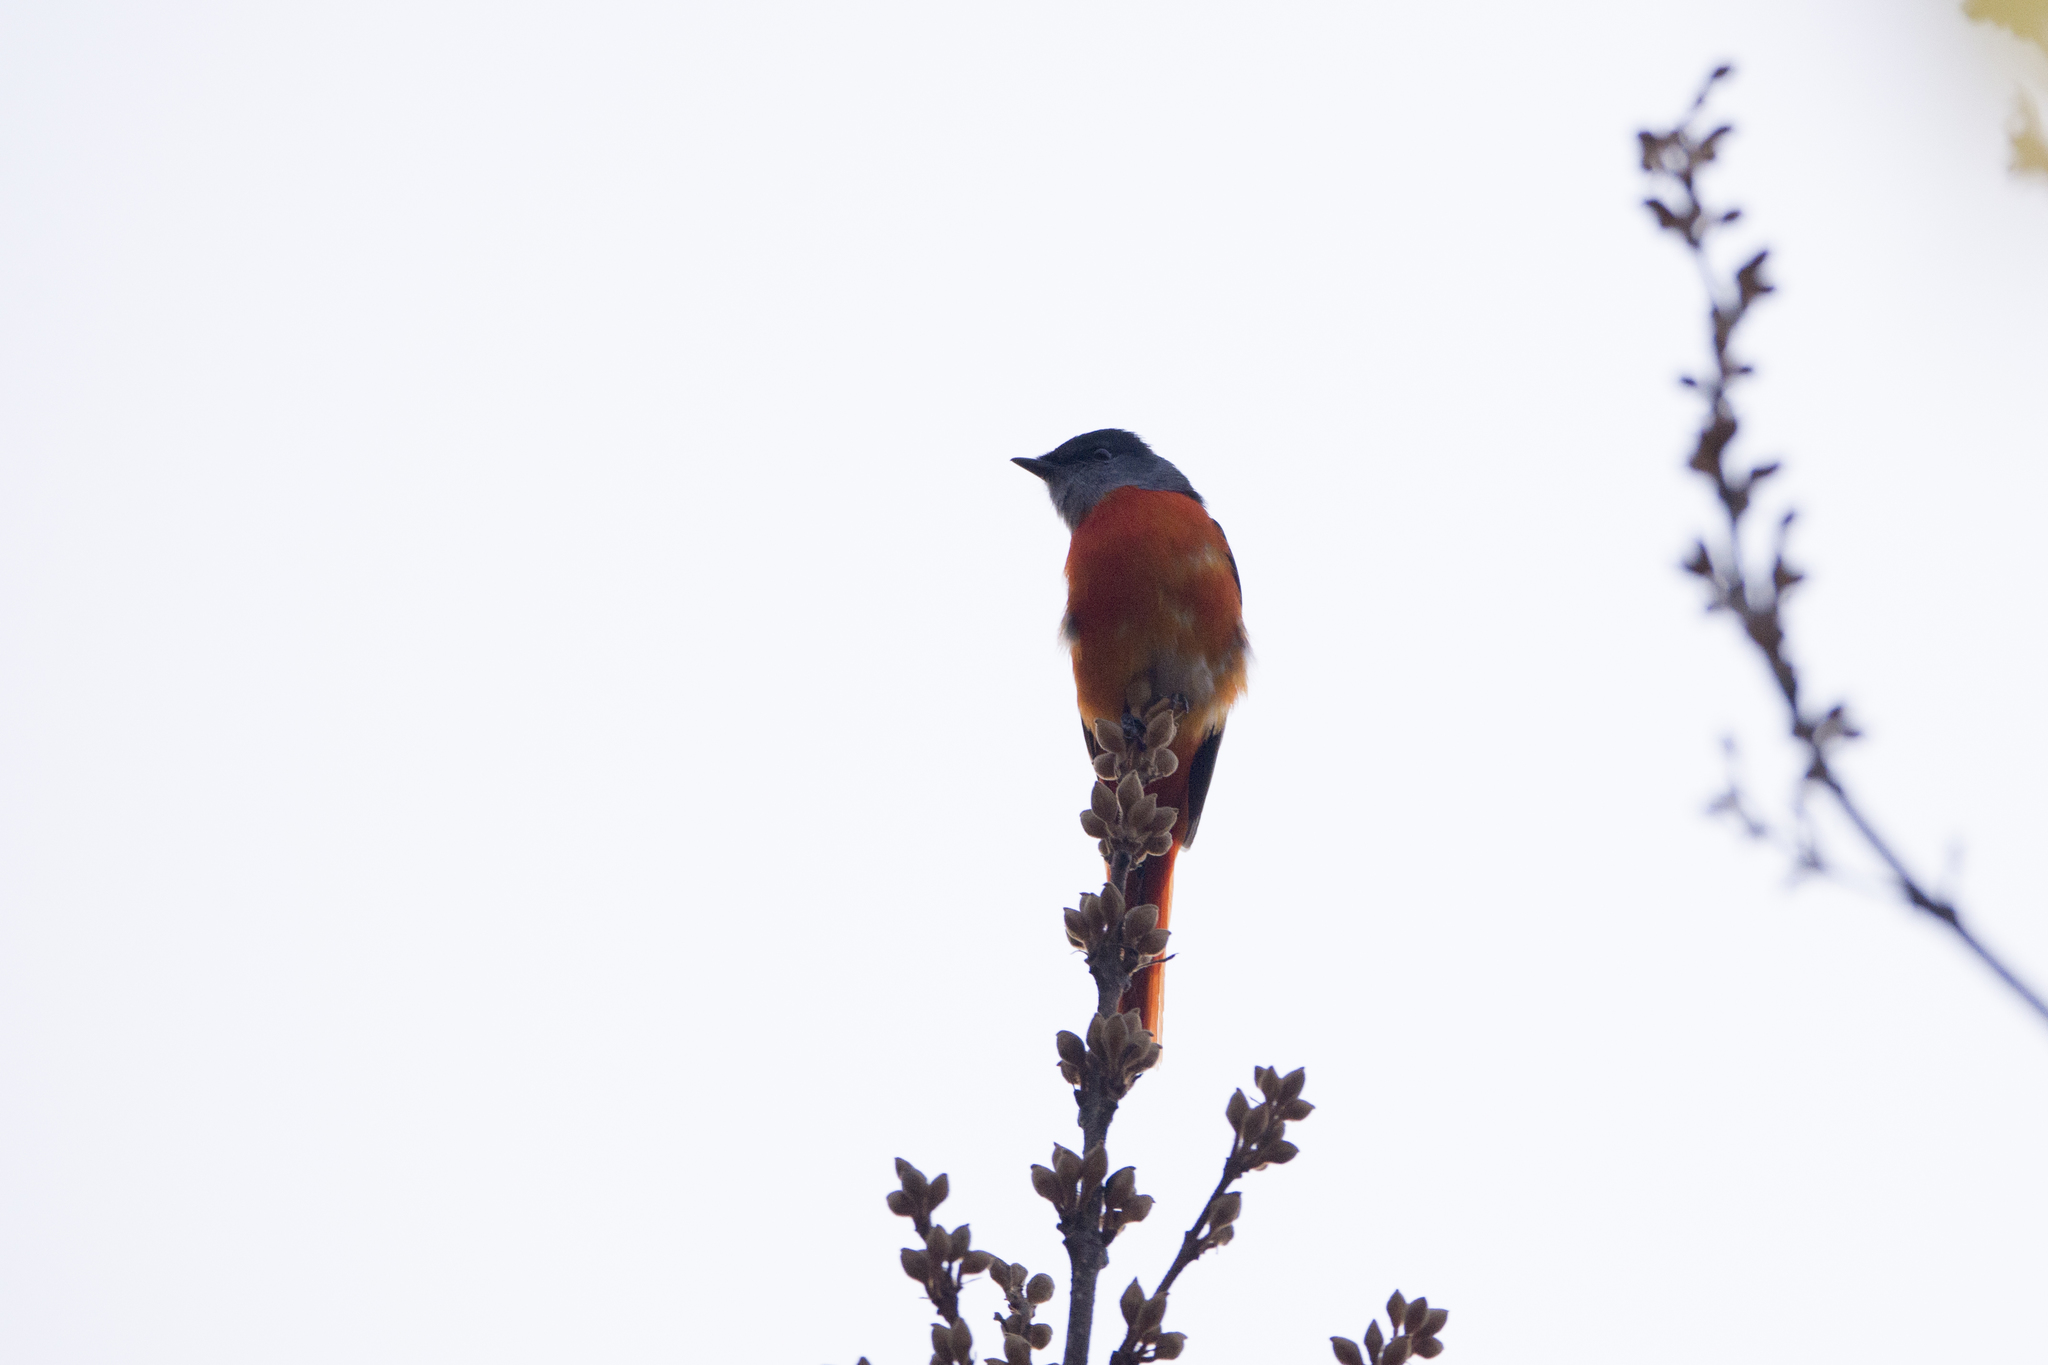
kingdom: Animalia
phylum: Chordata
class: Aves
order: Passeriformes
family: Campephagidae
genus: Pericrocotus
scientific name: Pericrocotus solaris
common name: Grey-chinned minivet
